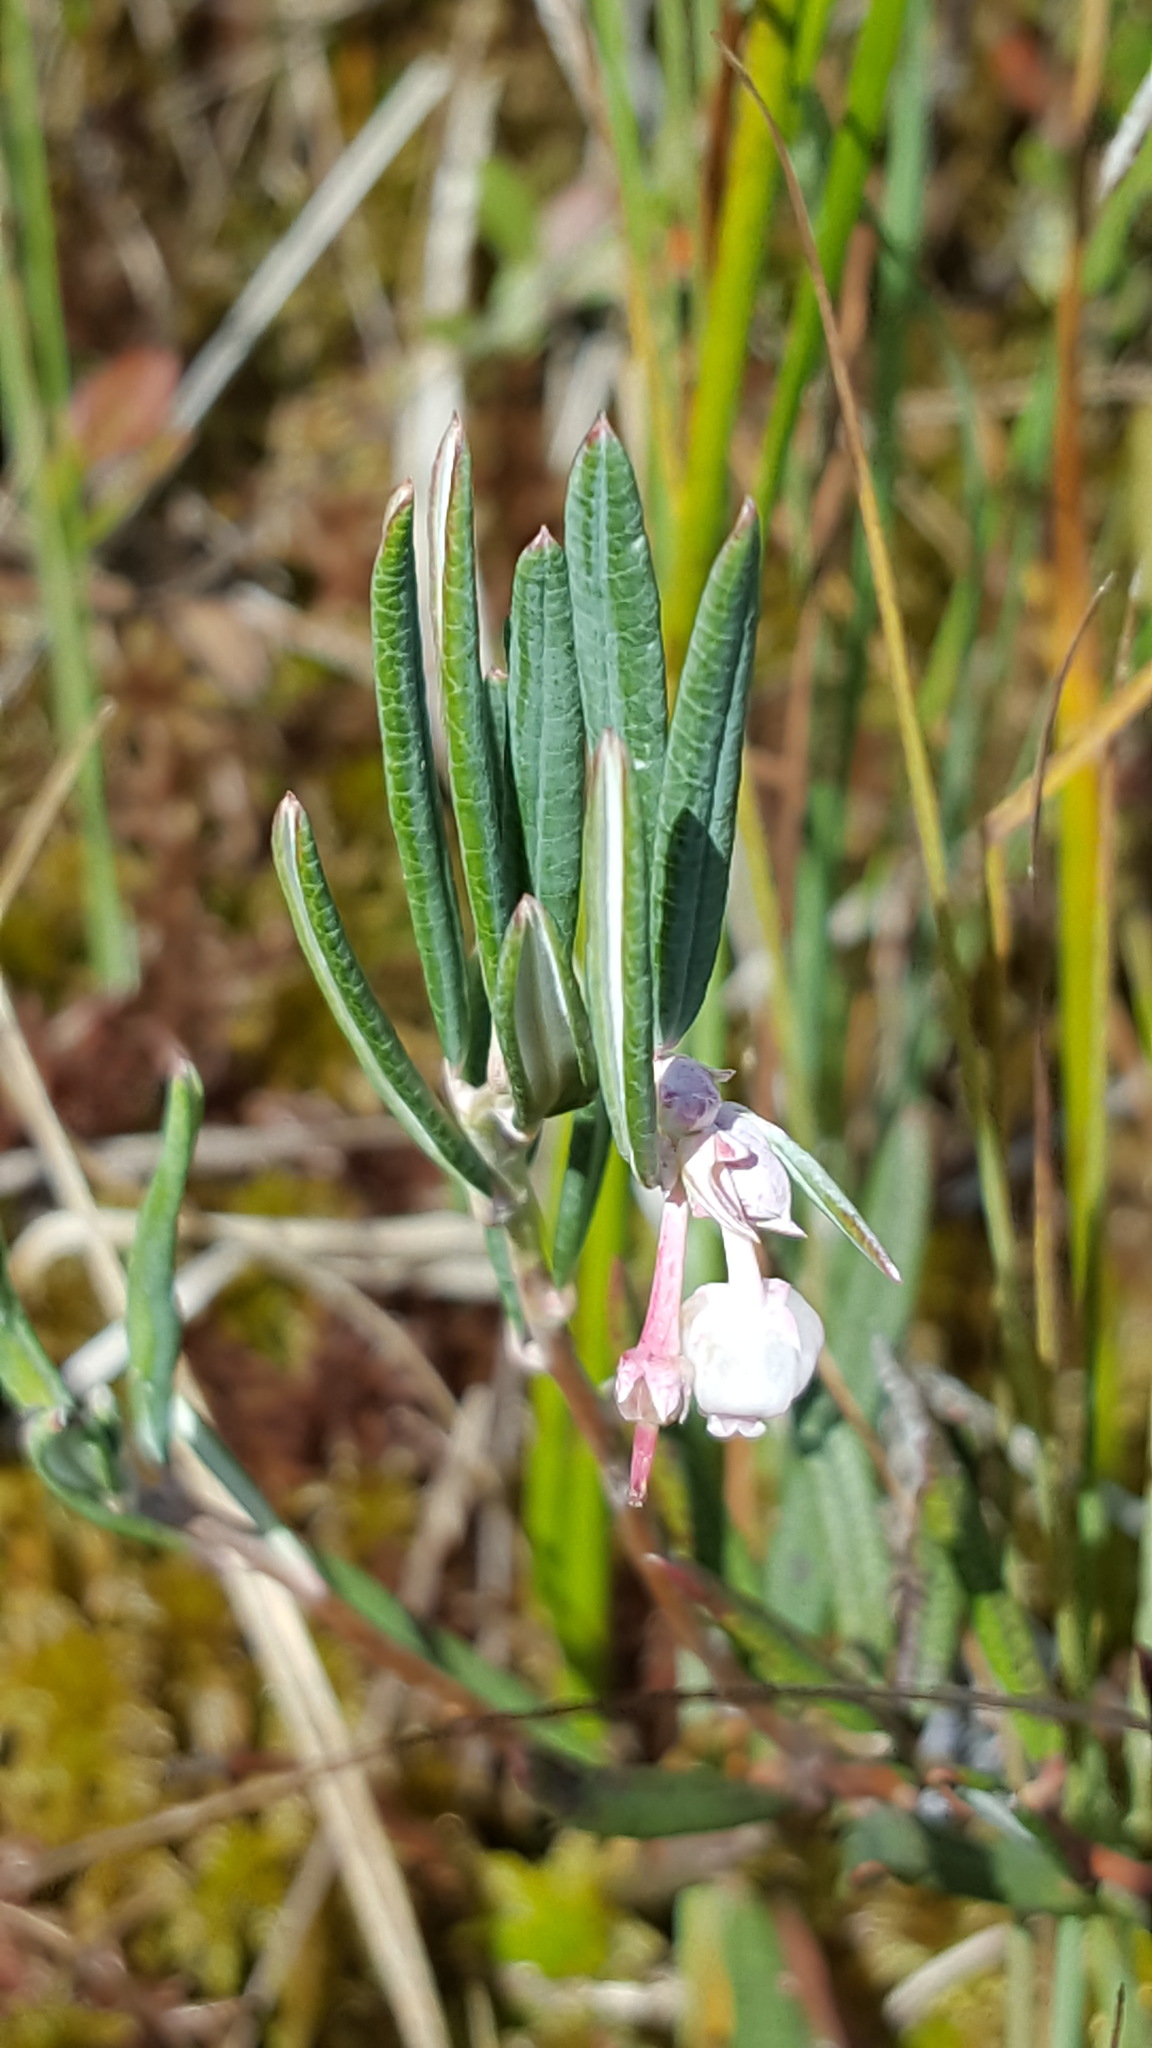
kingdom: Plantae
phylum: Tracheophyta
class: Magnoliopsida
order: Ericales
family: Ericaceae
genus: Andromeda
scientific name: Andromeda polifolia
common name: Bog-rosemary
